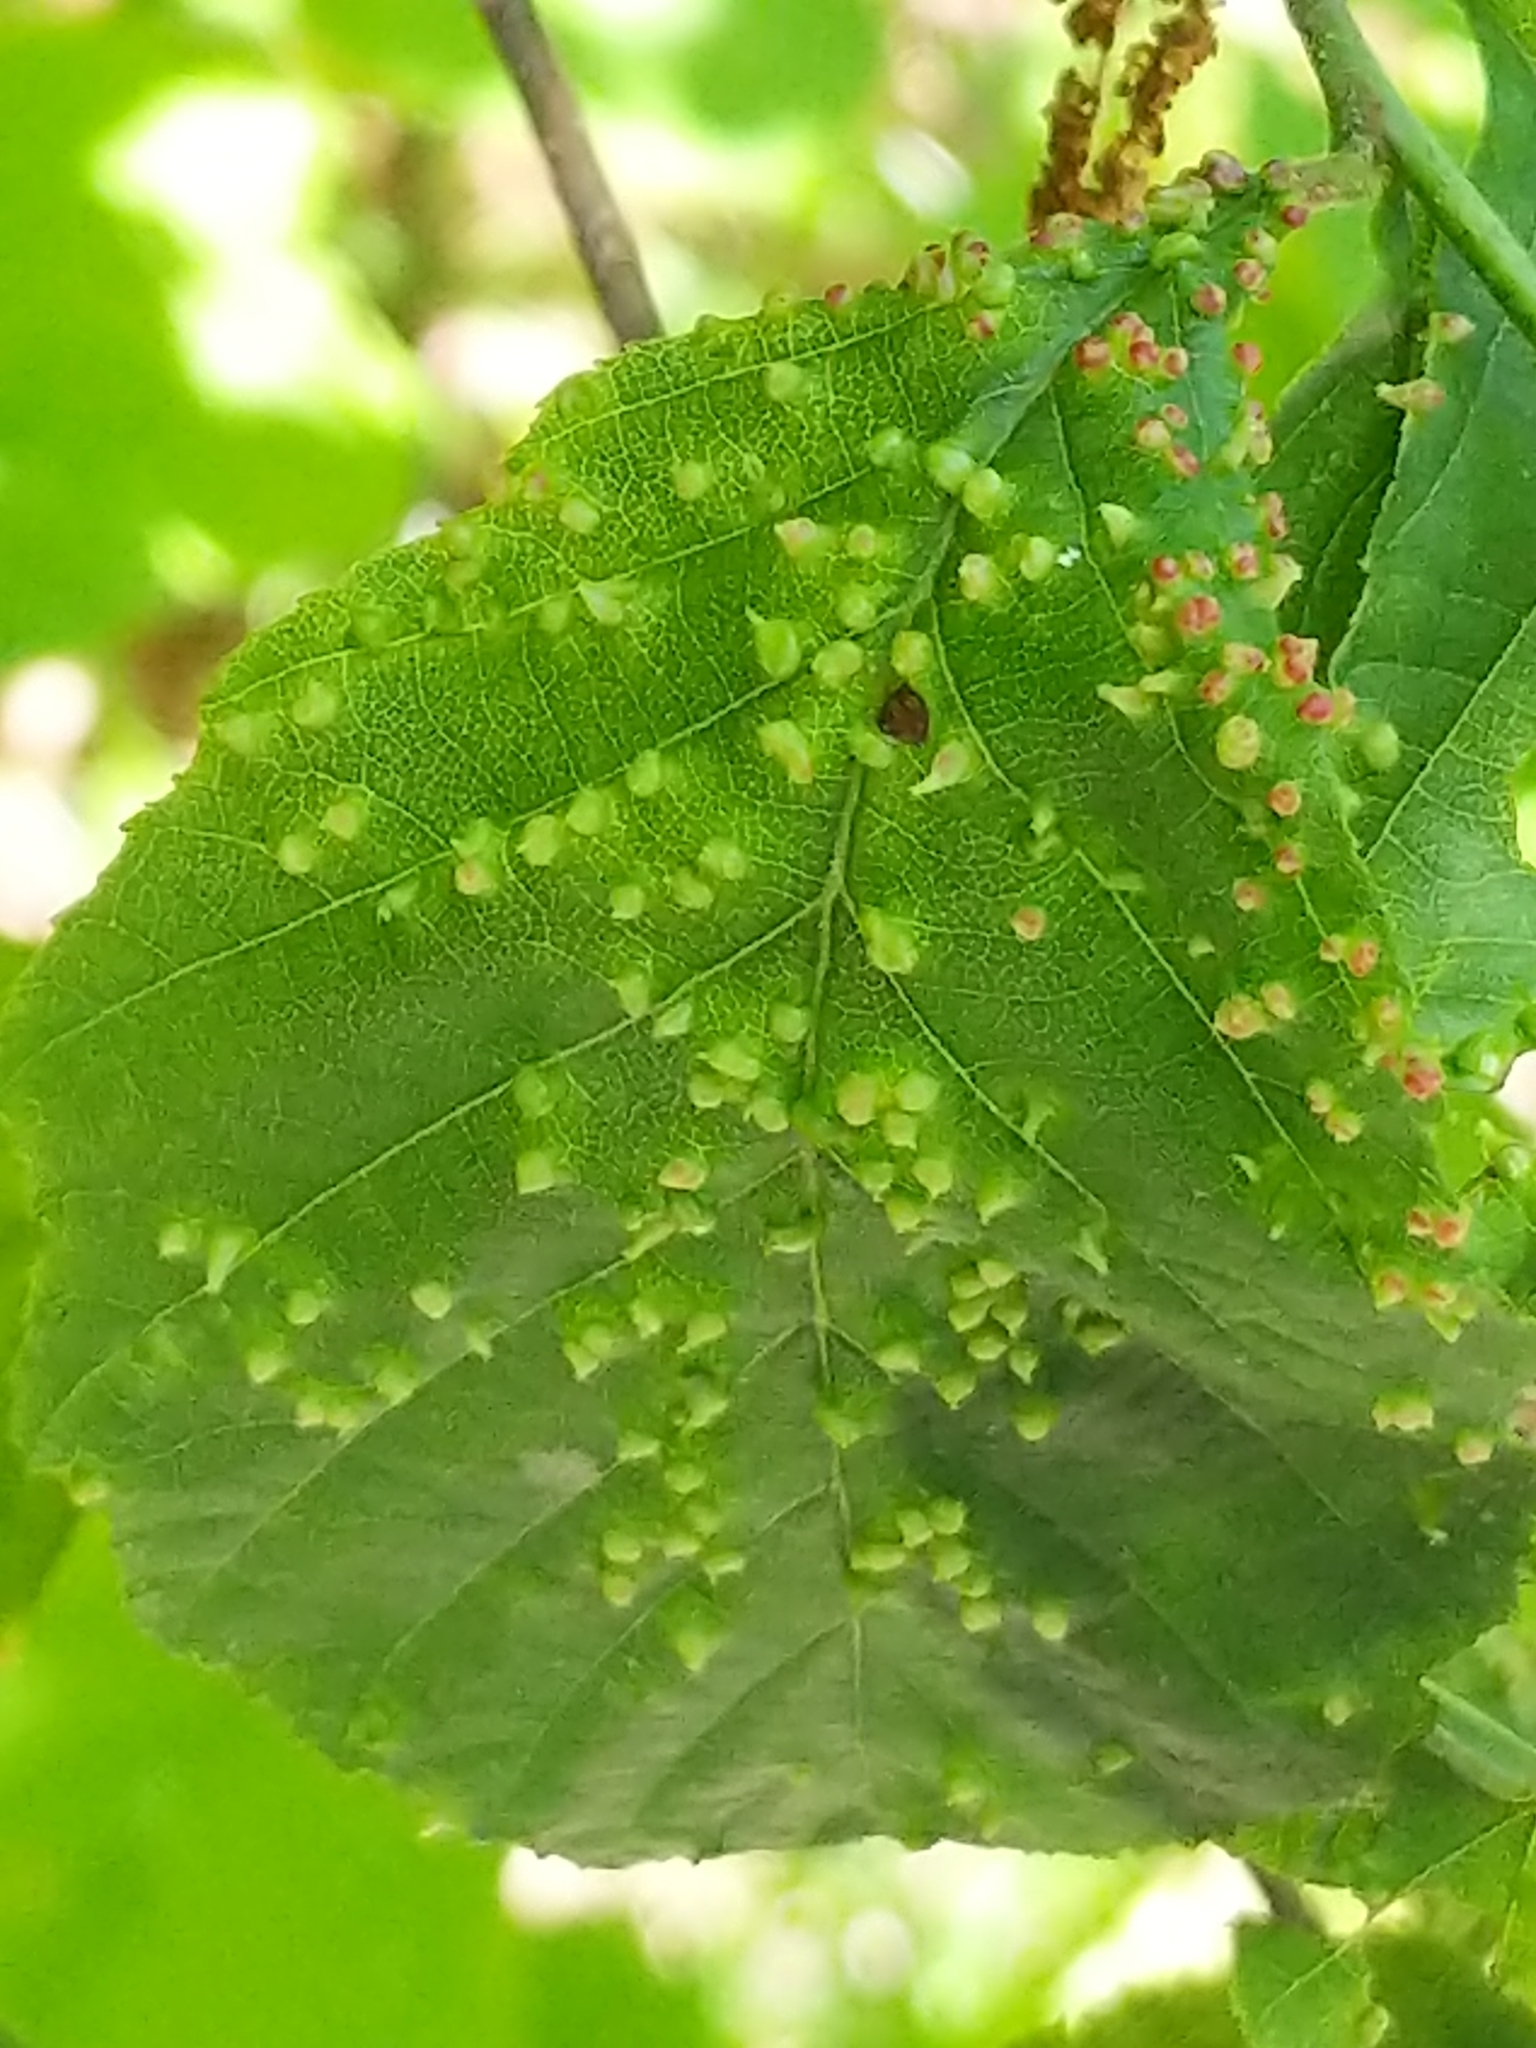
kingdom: Animalia
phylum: Arthropoda
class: Arachnida
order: Trombidiformes
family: Eriophyidae
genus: Eriophyes
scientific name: Eriophyes laevis
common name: Alder leaf gall mite
